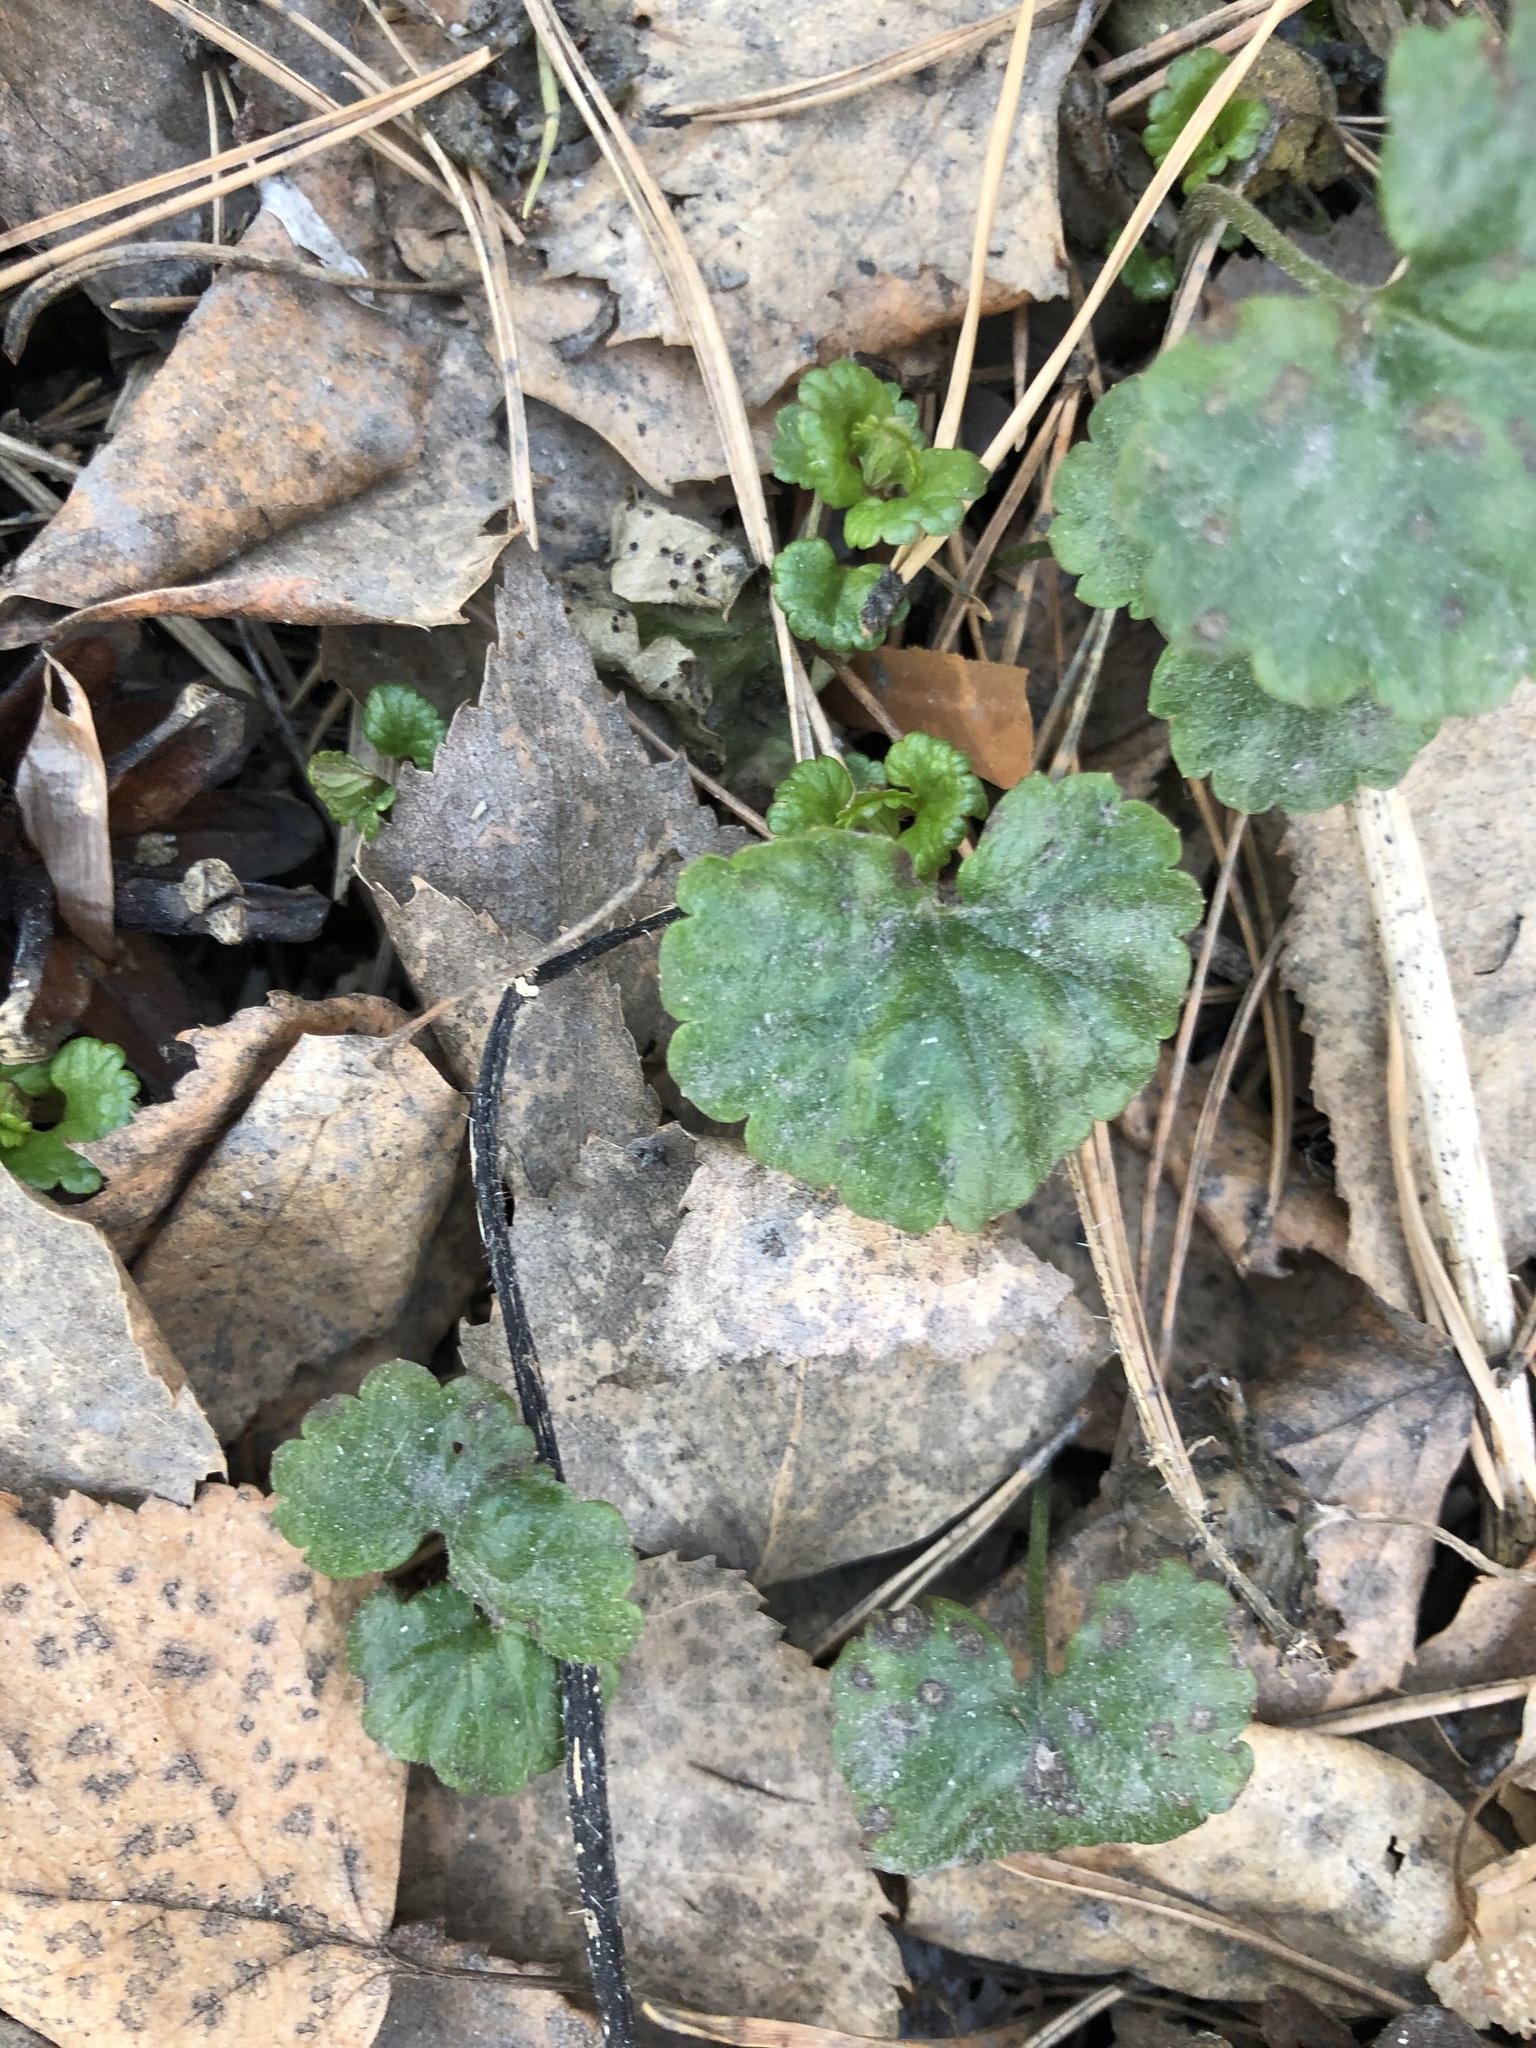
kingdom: Plantae
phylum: Tracheophyta
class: Magnoliopsida
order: Lamiales
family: Lamiaceae
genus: Glechoma
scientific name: Glechoma hederacea
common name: Ground ivy
